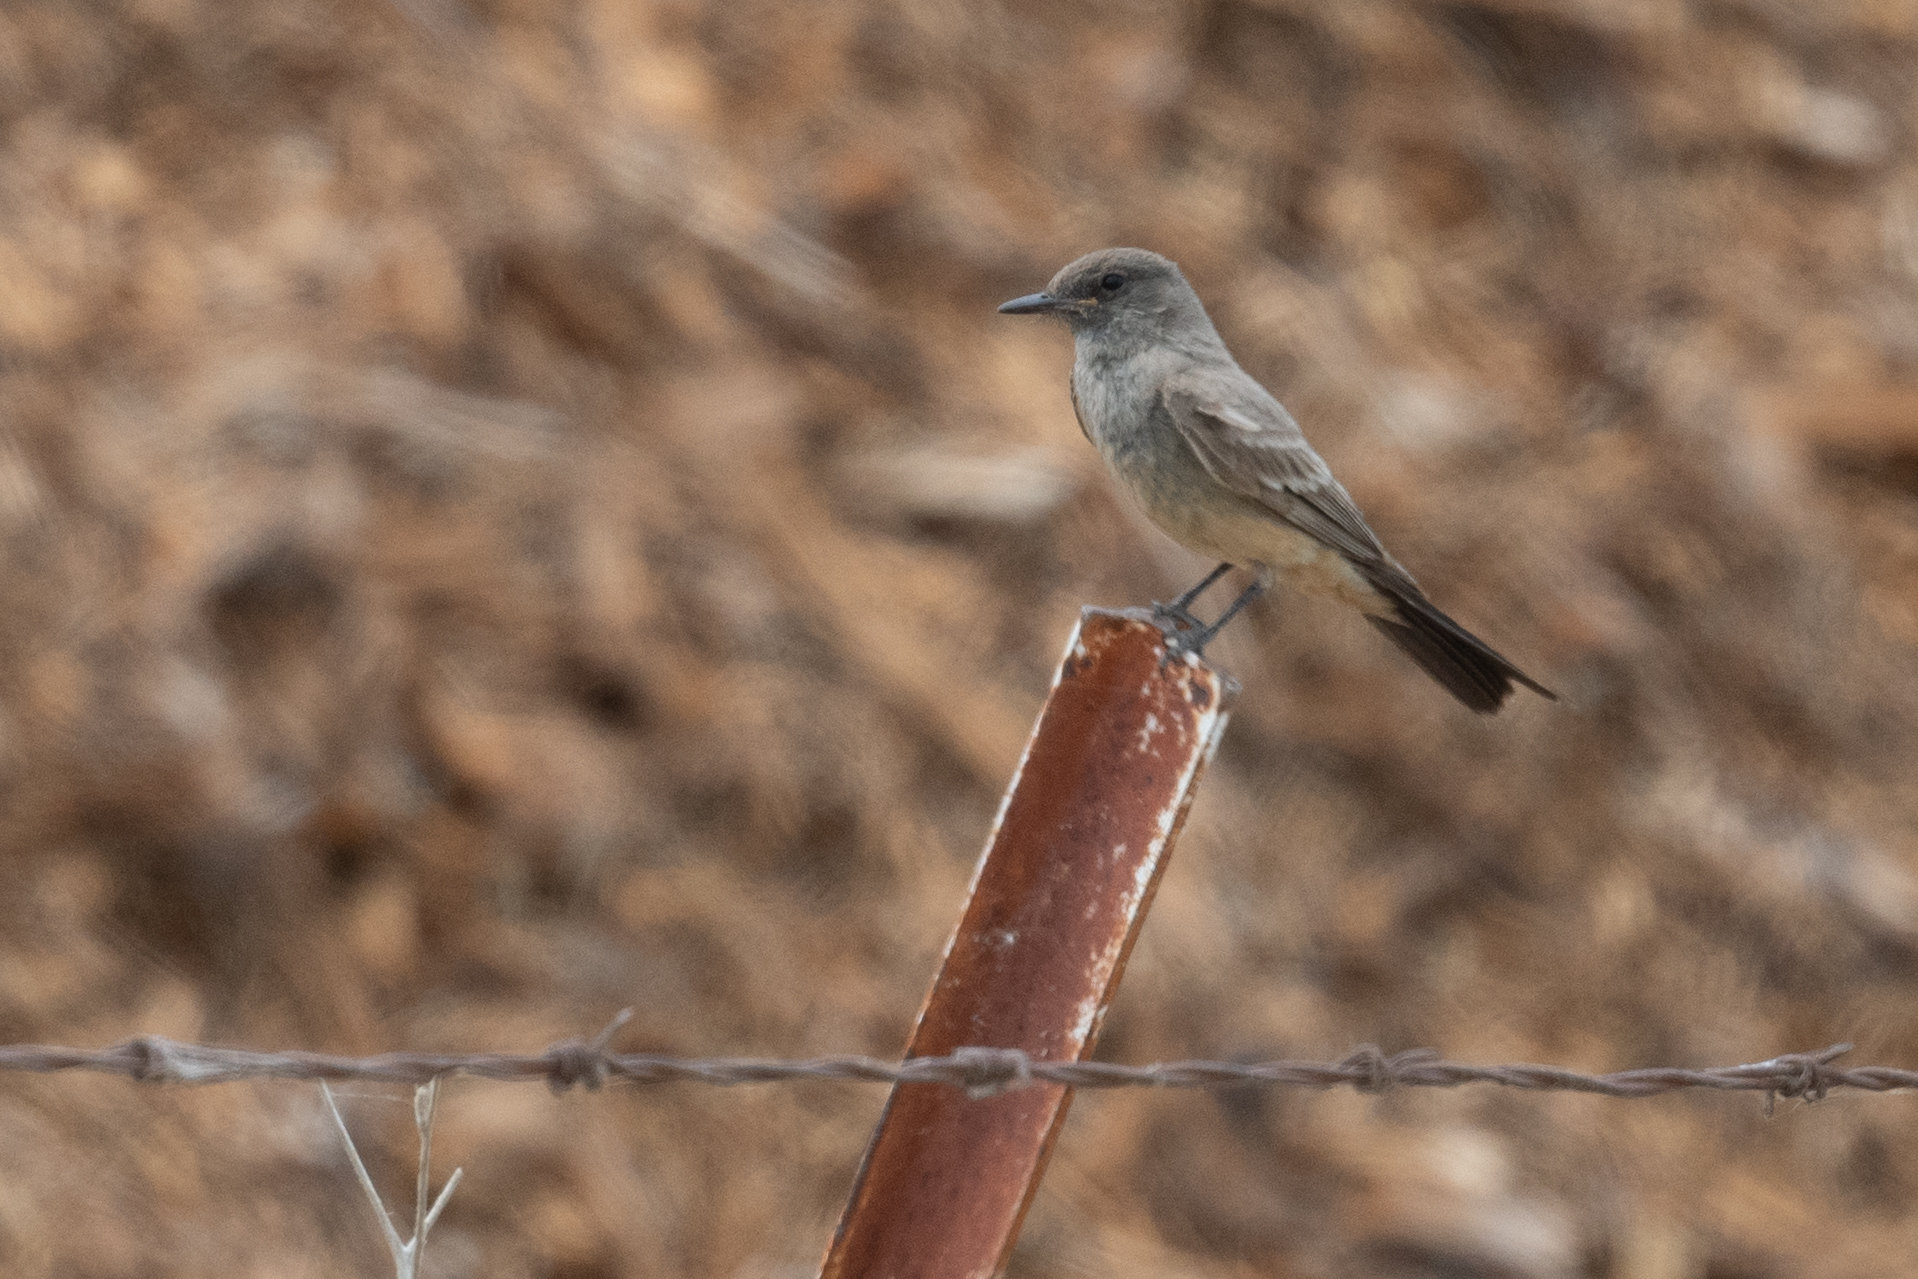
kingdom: Animalia
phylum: Chordata
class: Aves
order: Passeriformes
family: Tyrannidae
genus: Sayornis
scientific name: Sayornis saya
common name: Say's phoebe
